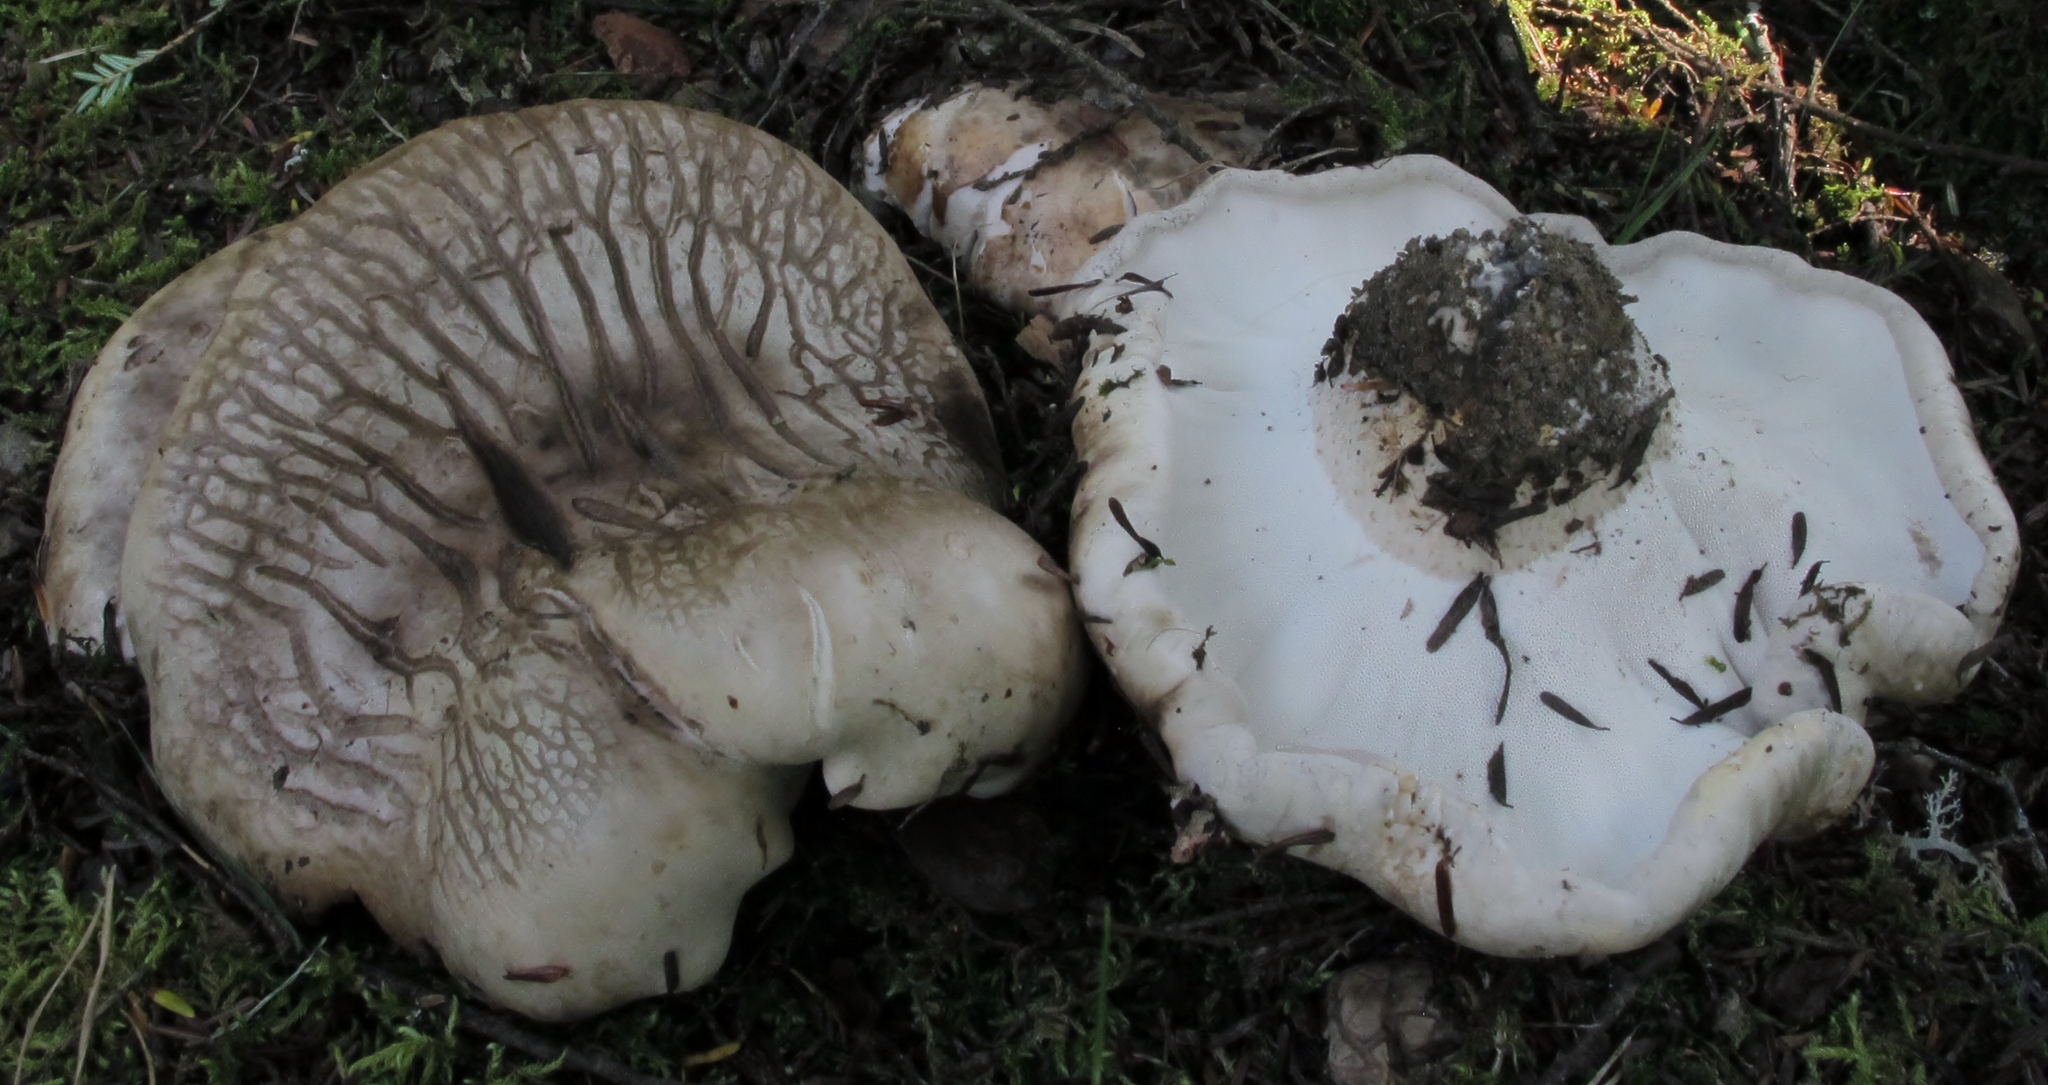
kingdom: Fungi
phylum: Basidiomycota
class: Agaricomycetes
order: Thelephorales
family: Bankeraceae
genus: Boletopsis
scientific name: Boletopsis grisea
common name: Grey falsebolete
